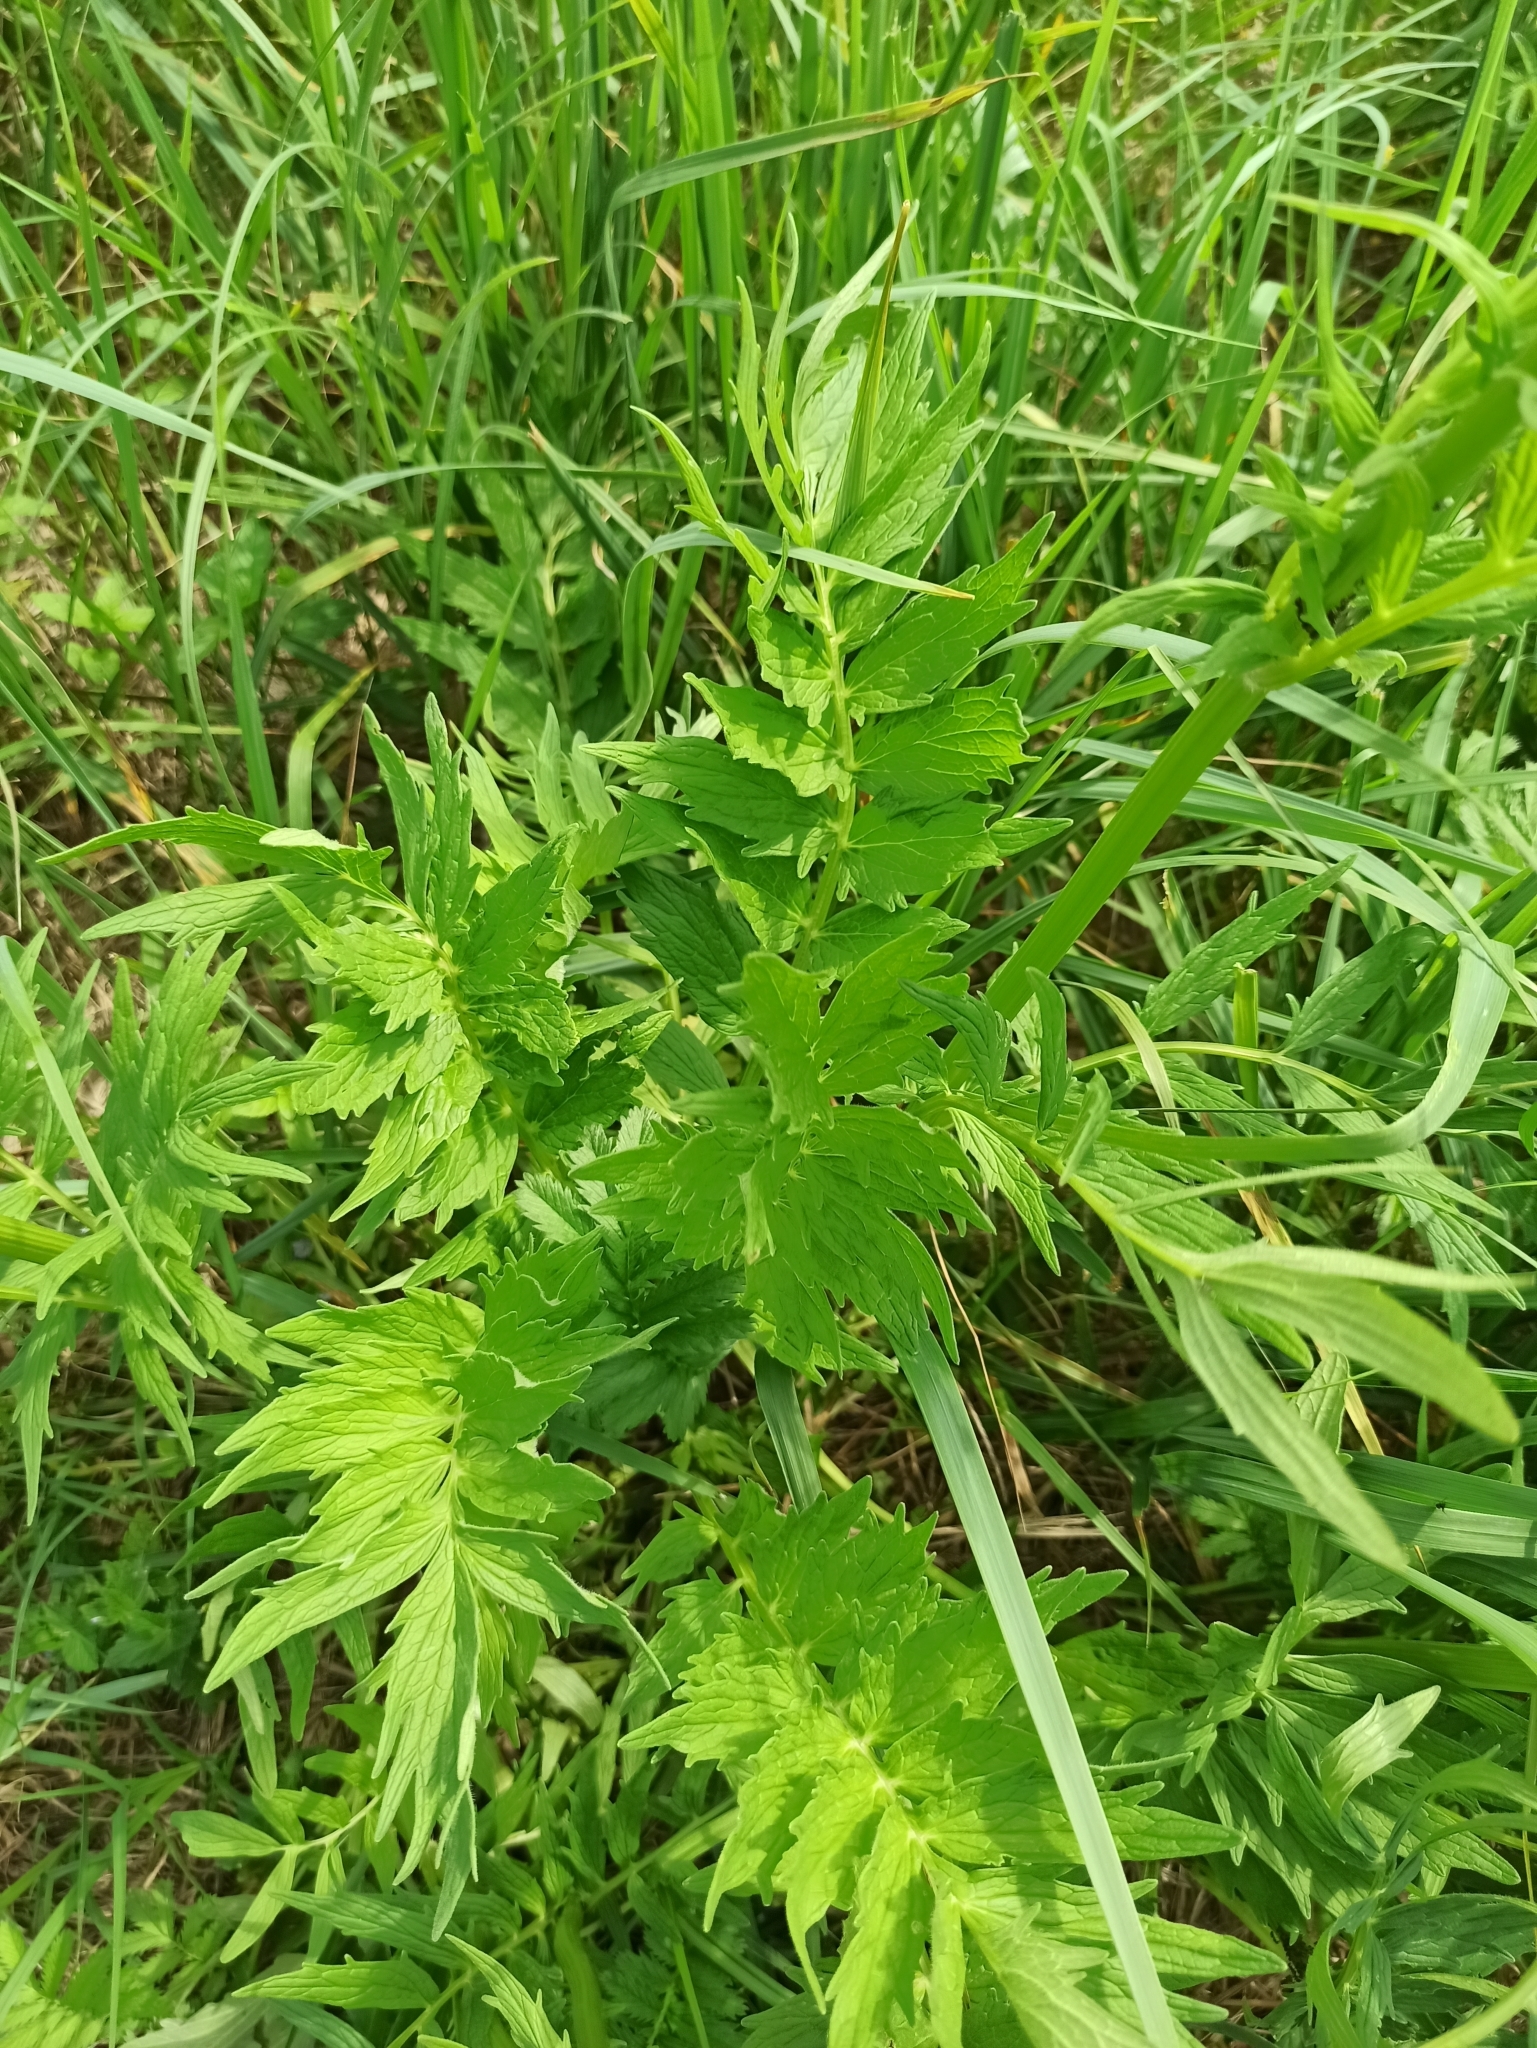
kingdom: Plantae
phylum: Tracheophyta
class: Magnoliopsida
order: Dipsacales
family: Caprifoliaceae
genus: Valeriana
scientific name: Valeriana officinalis
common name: Common valerian
